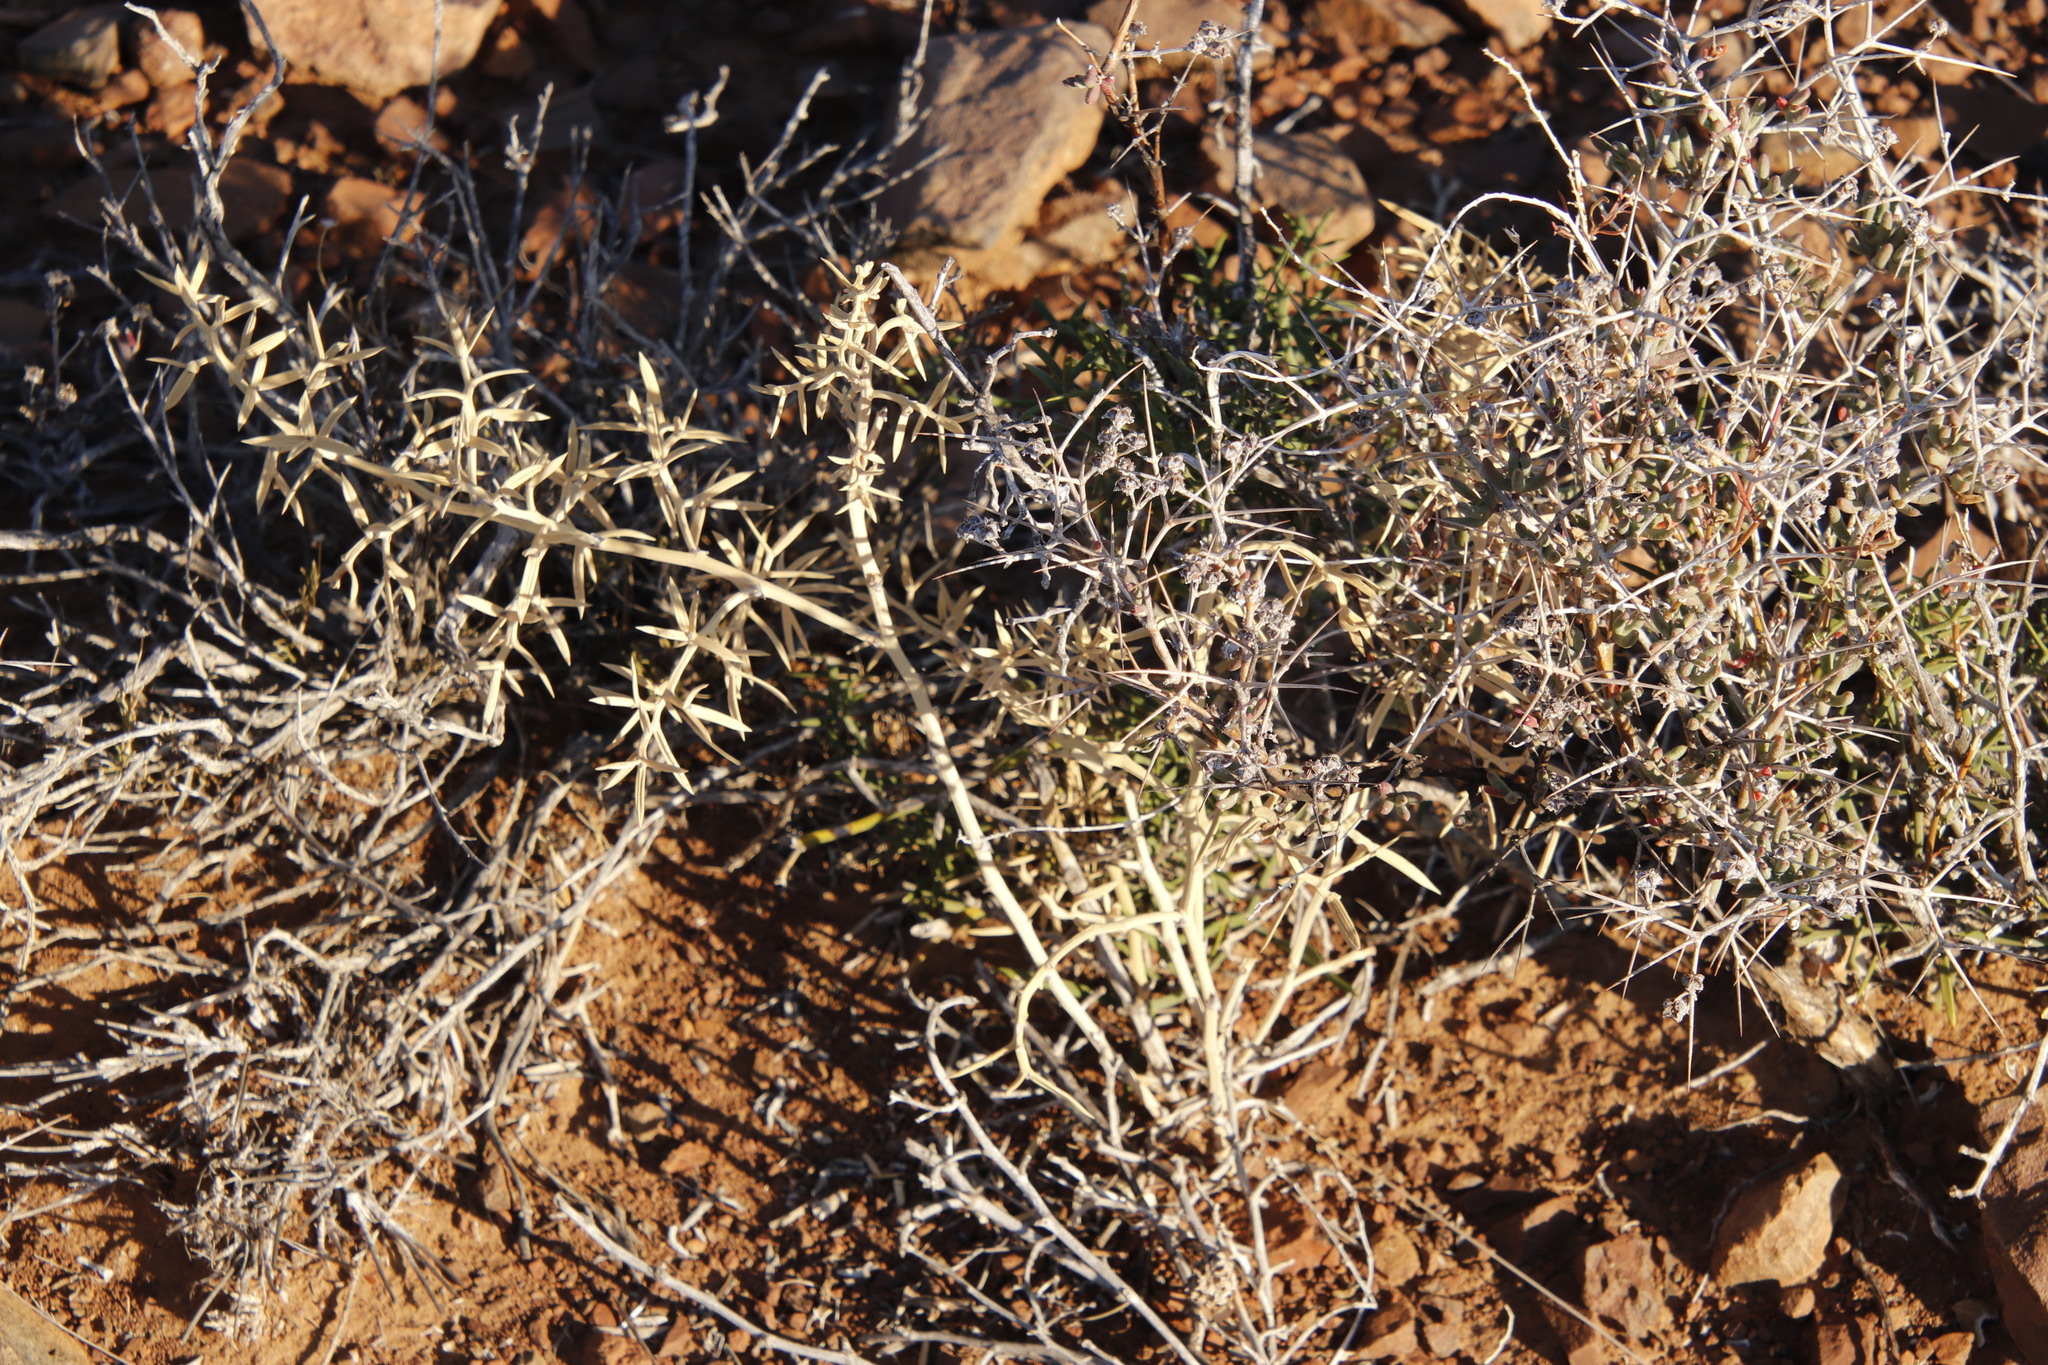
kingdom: Plantae
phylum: Tracheophyta
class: Liliopsida
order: Asparagales
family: Asparagaceae
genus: Asparagus
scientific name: Asparagus striatus
